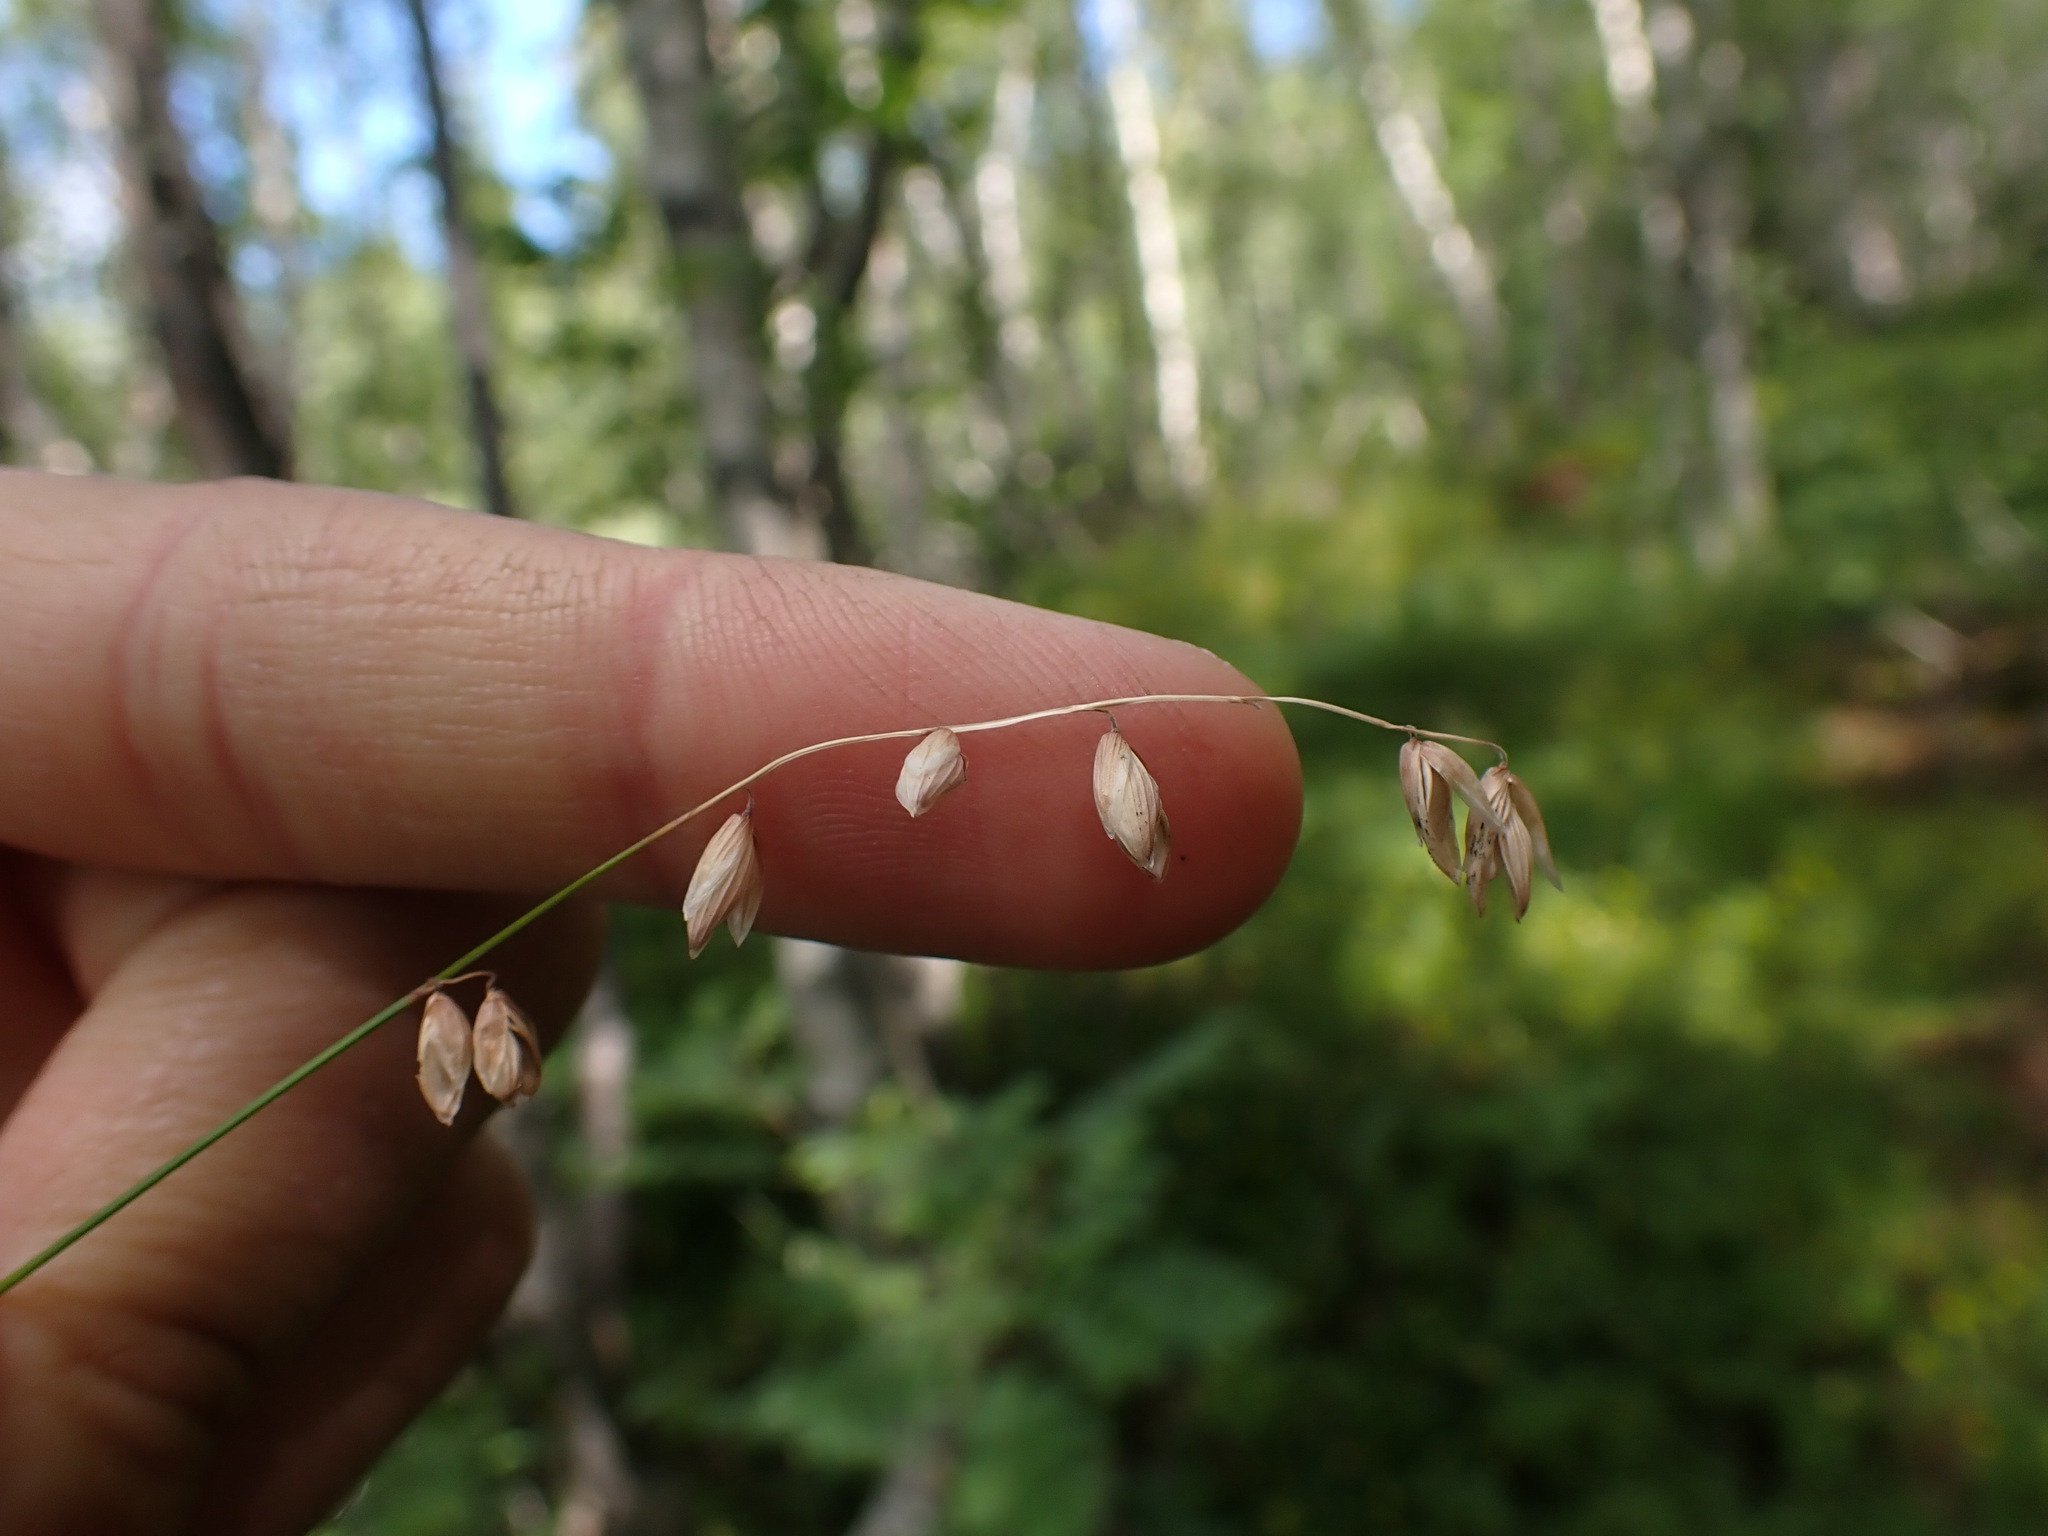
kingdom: Plantae
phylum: Tracheophyta
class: Liliopsida
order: Poales
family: Poaceae
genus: Melica
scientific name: Melica nutans
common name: Mountain melick
